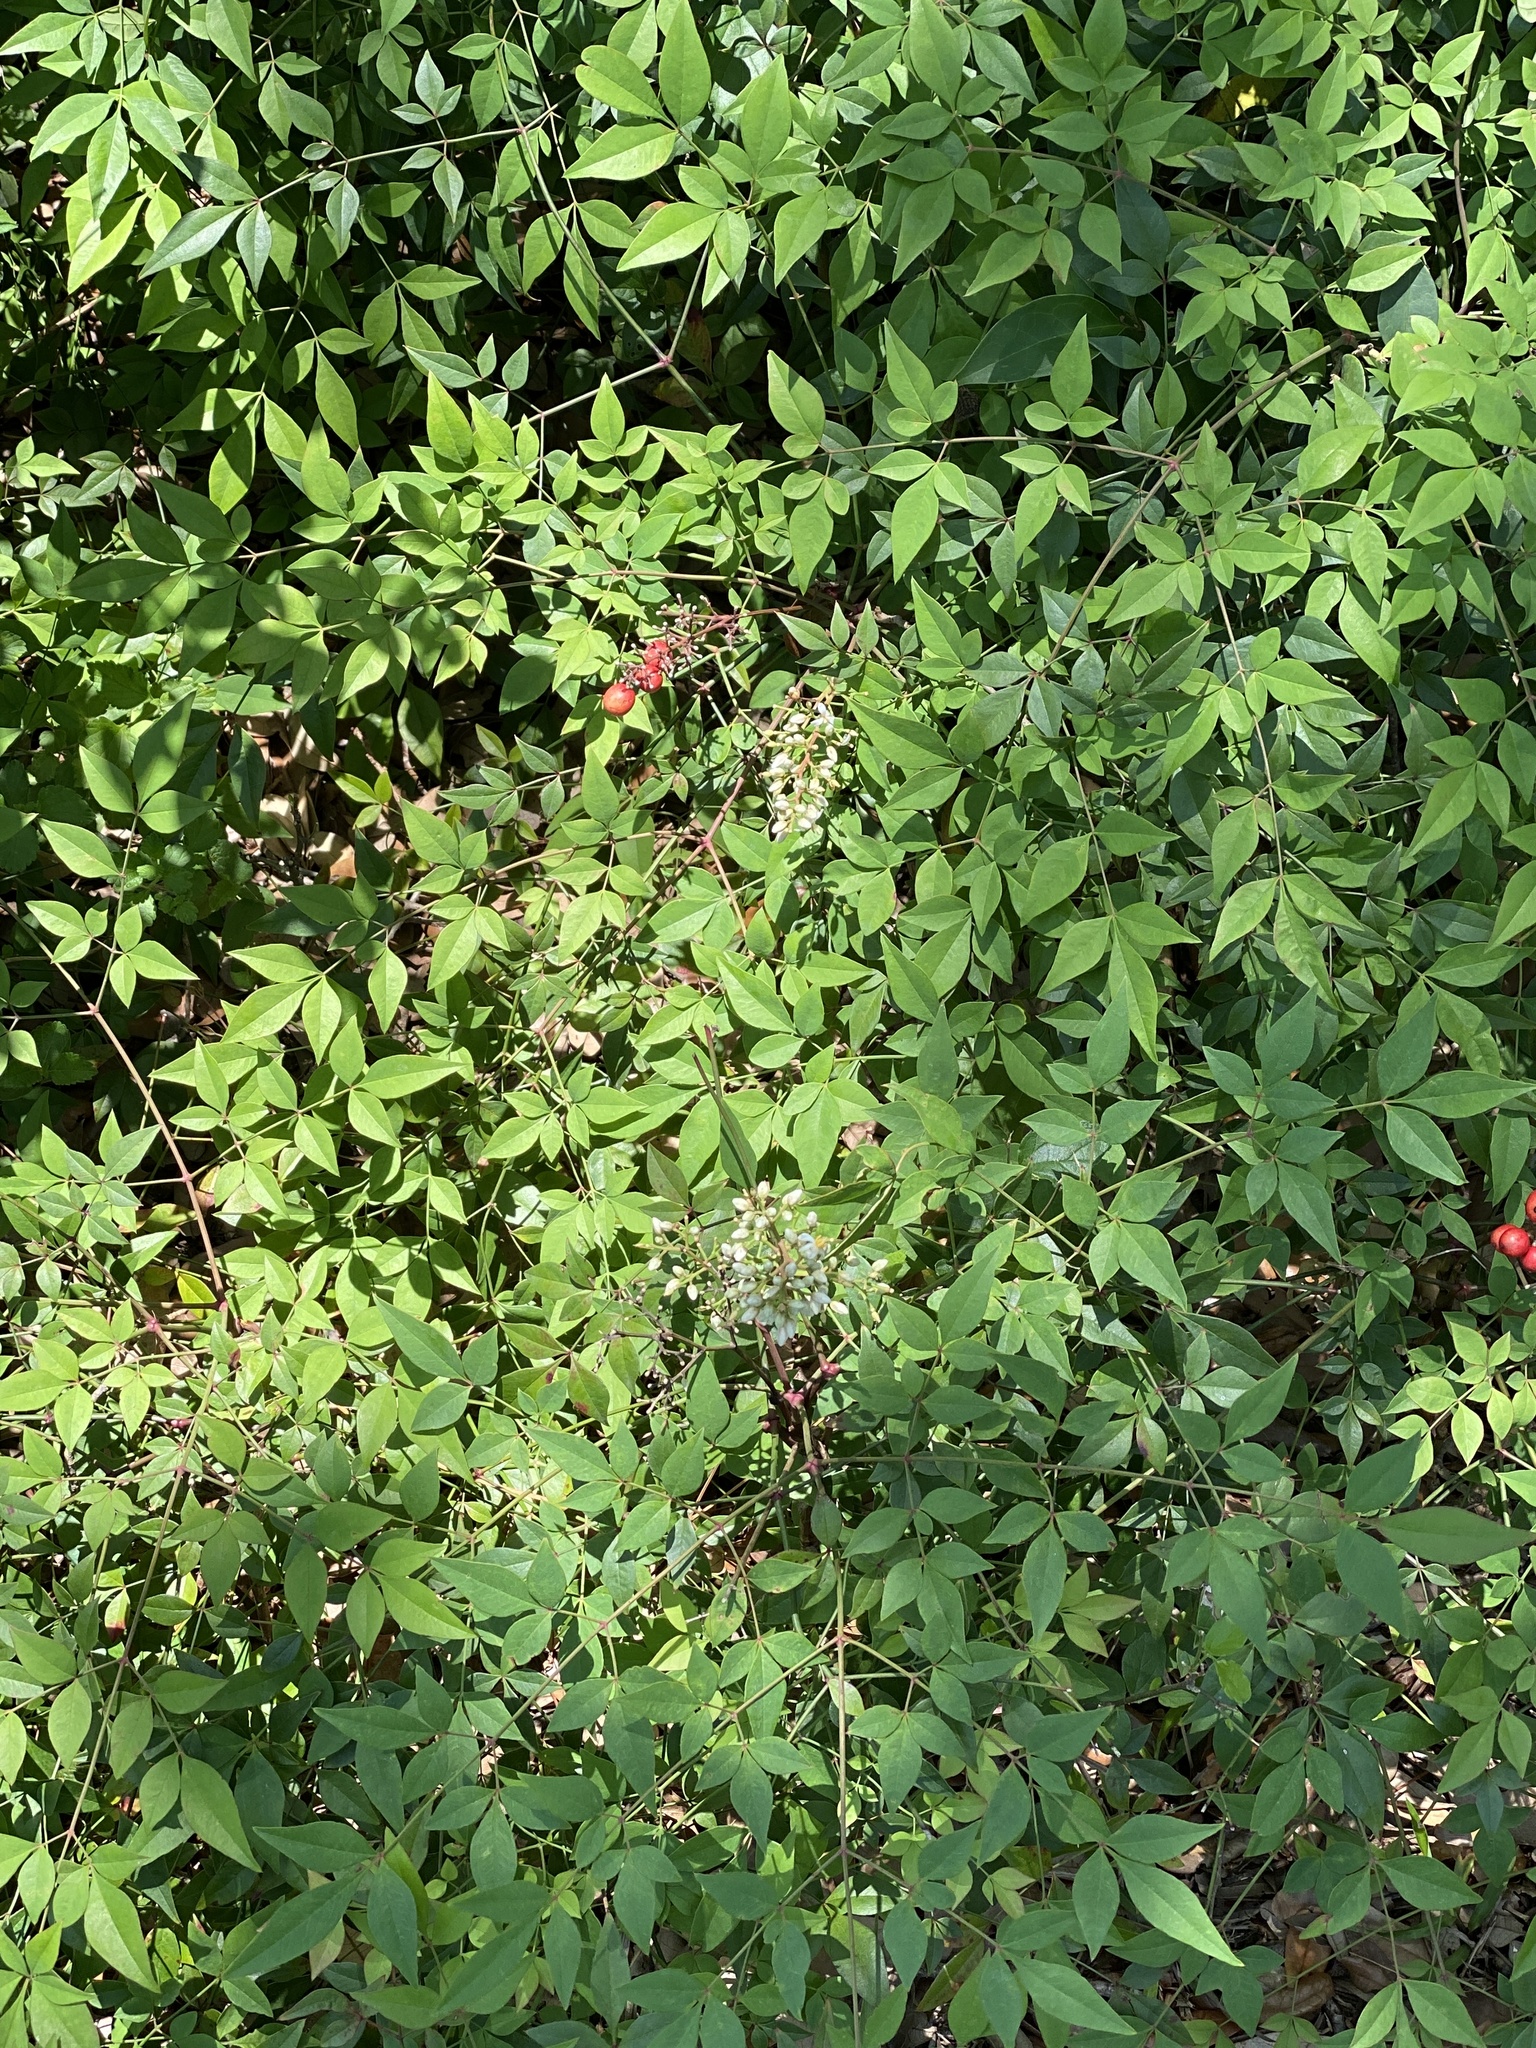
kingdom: Plantae
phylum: Tracheophyta
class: Magnoliopsida
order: Ranunculales
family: Berberidaceae
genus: Nandina
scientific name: Nandina domestica
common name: Sacred bamboo
